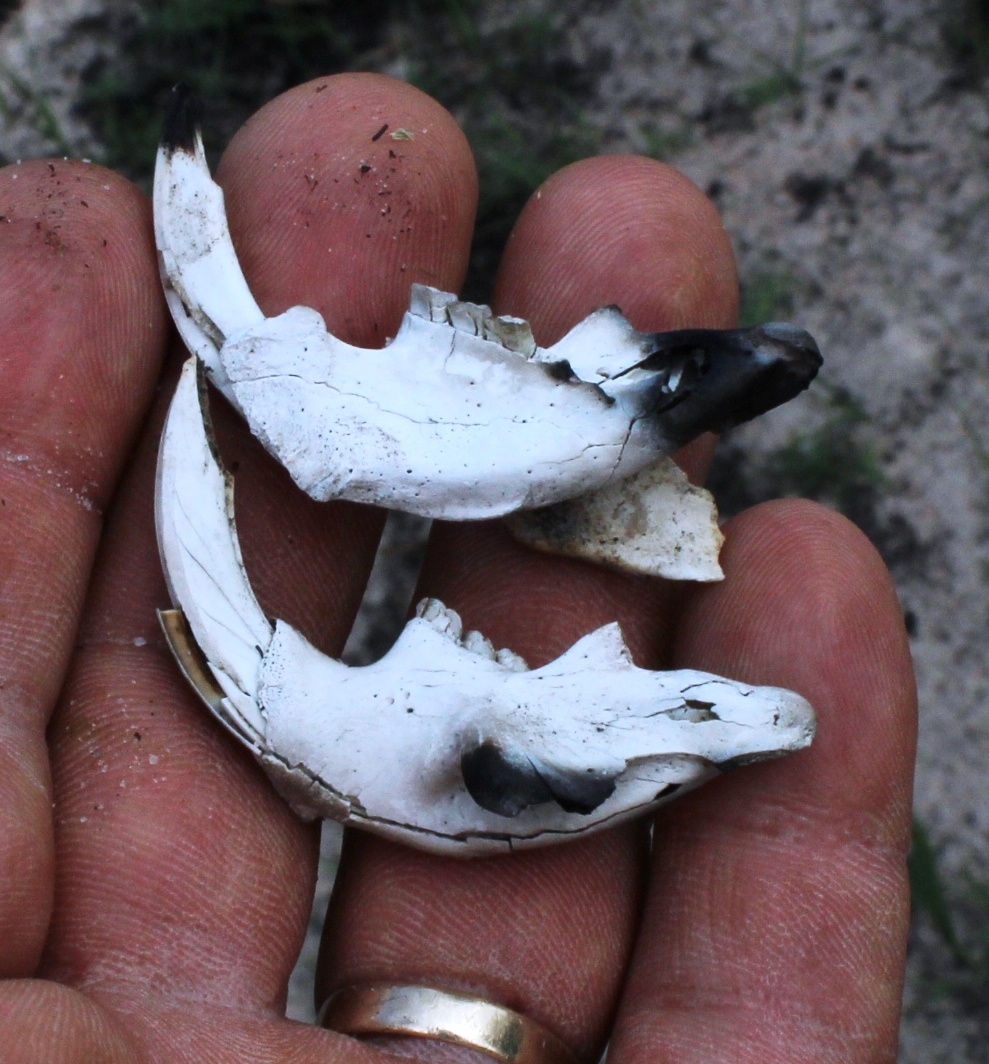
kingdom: Animalia
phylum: Chordata
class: Mammalia
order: Rodentia
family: Bathyergidae
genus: Bathyergus
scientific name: Bathyergus suillus
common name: Cape dune mole rat
